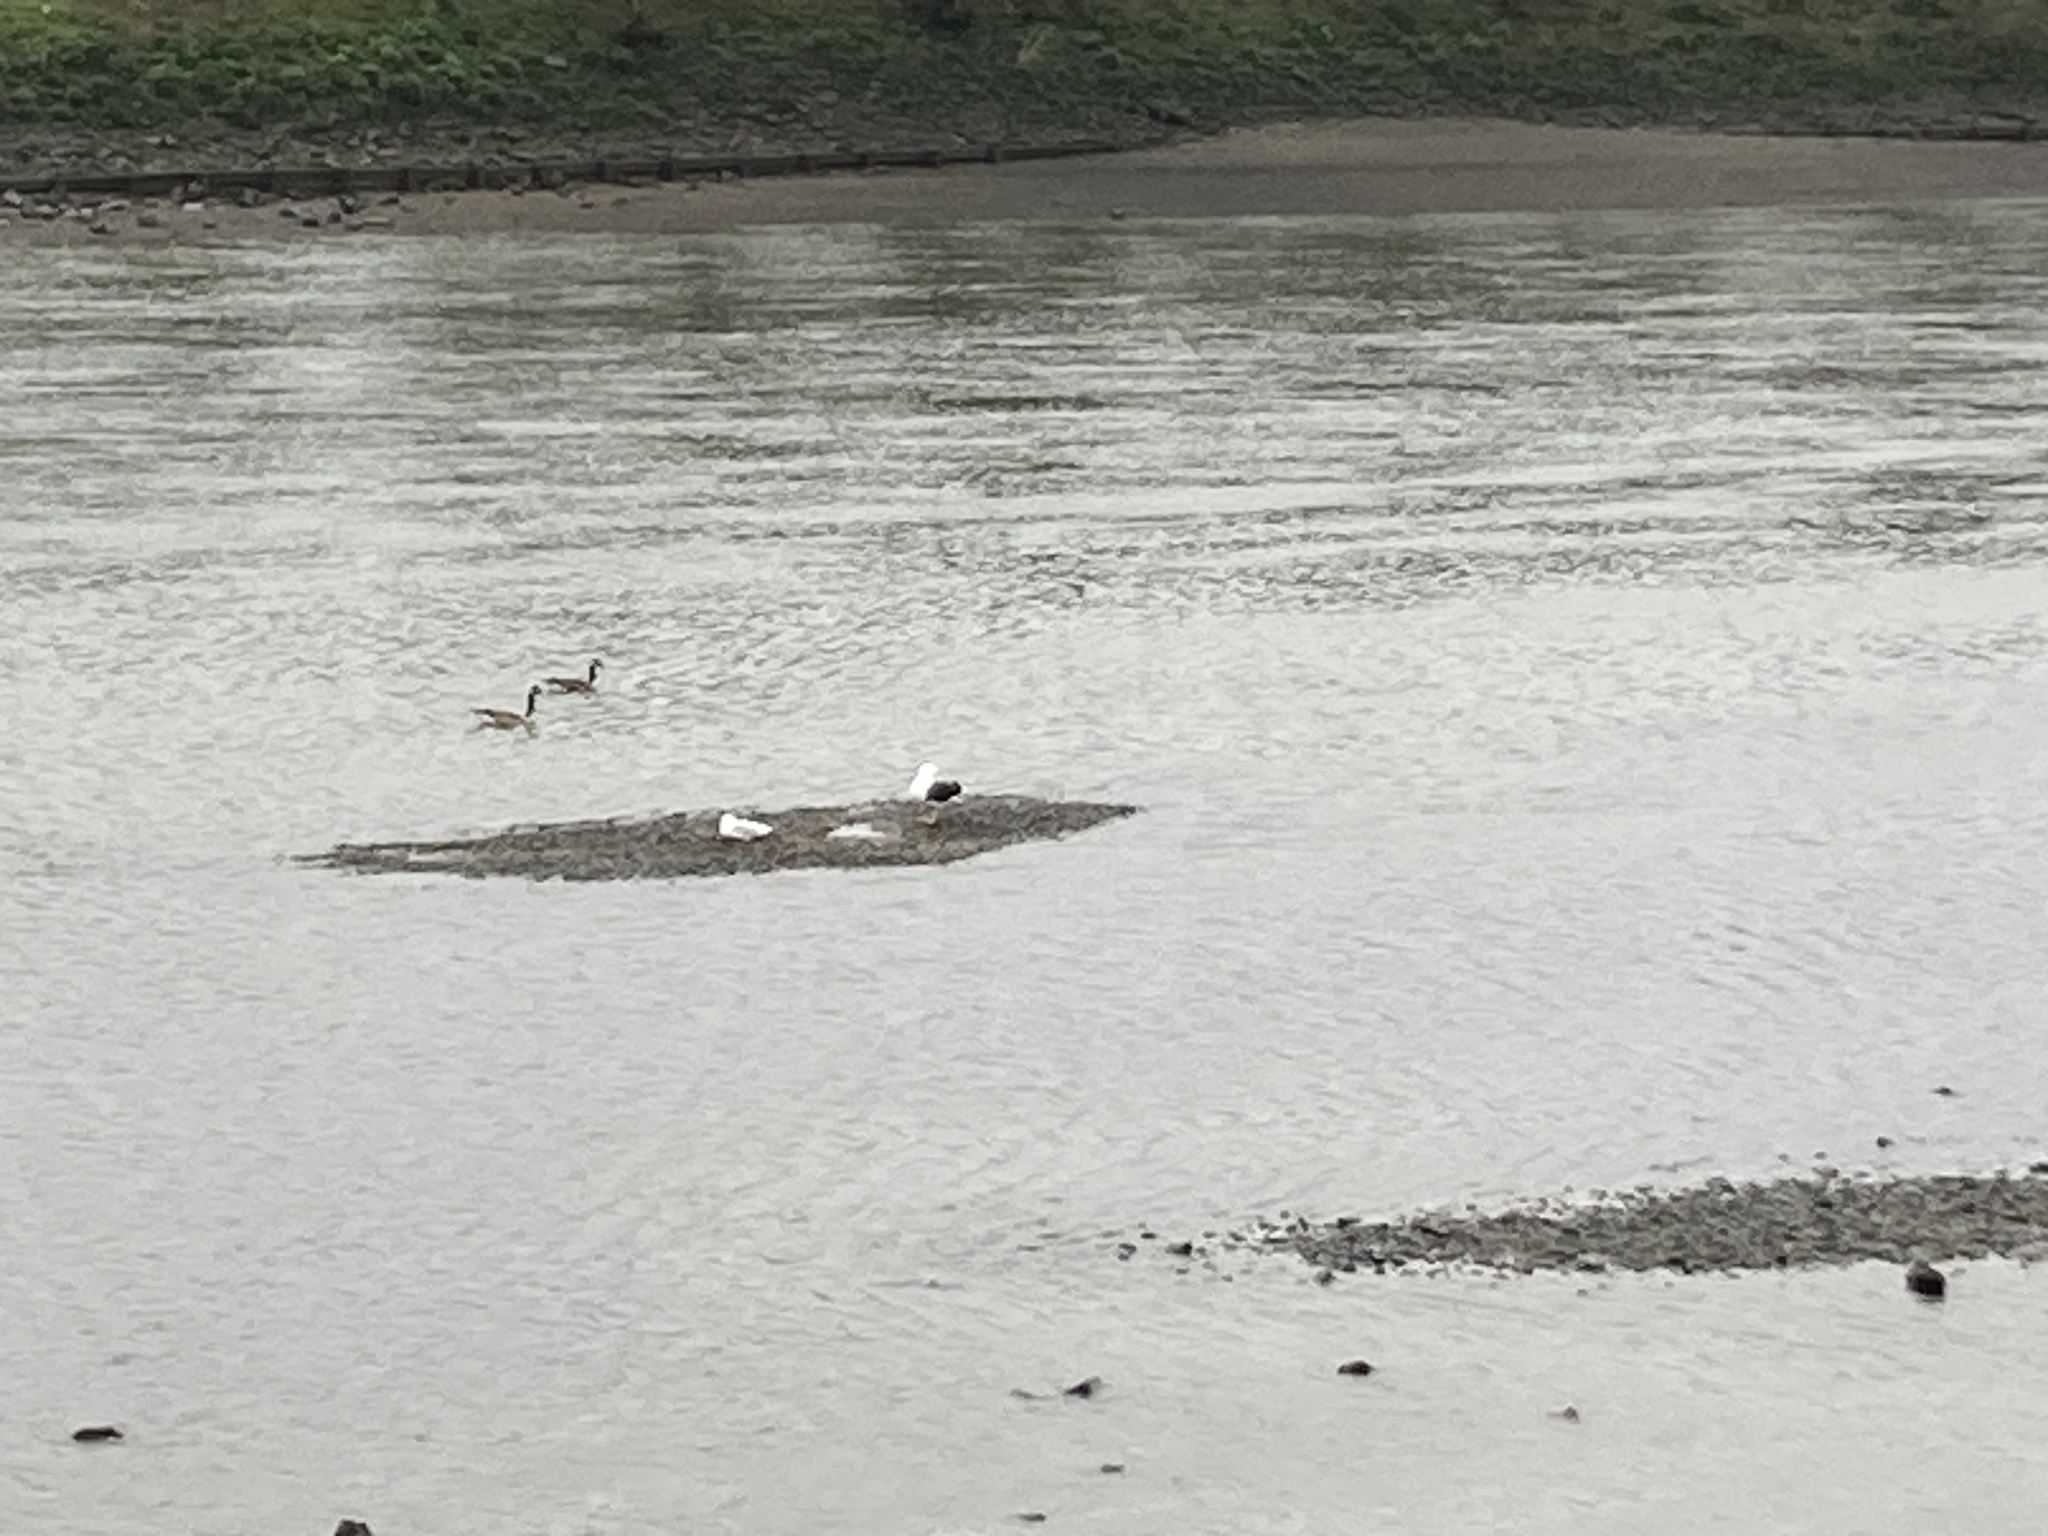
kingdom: Animalia
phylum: Chordata
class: Aves
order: Charadriiformes
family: Laridae
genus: Larus
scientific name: Larus marinus
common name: Great black-backed gull
